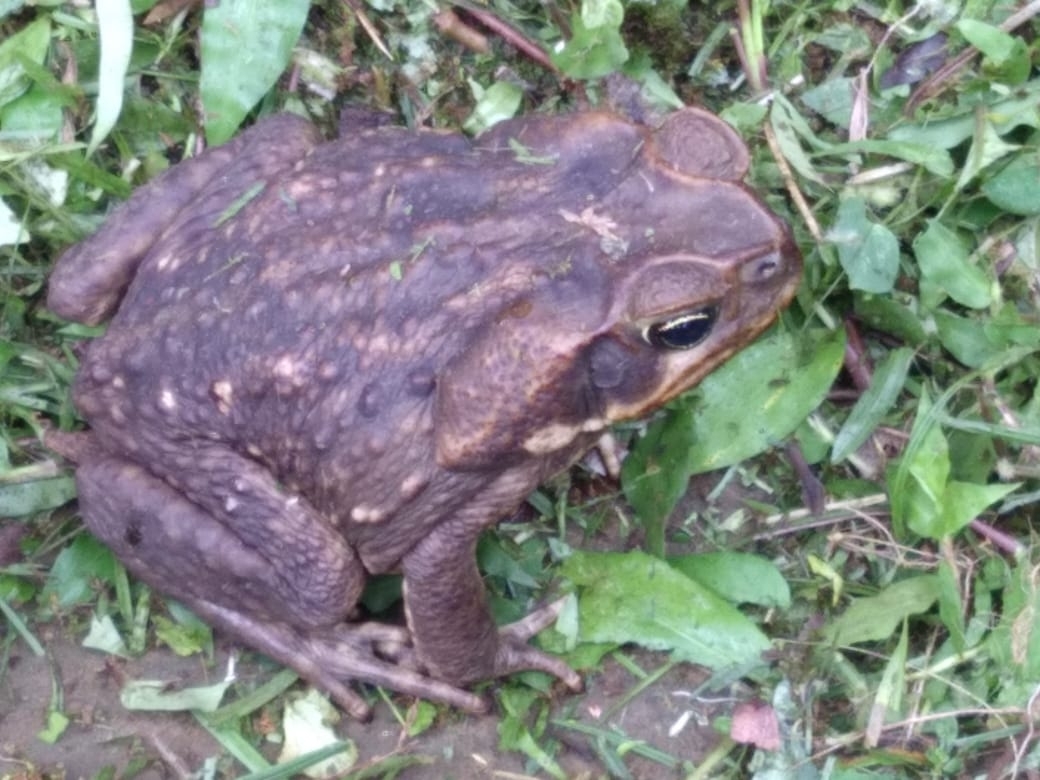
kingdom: Animalia
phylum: Chordata
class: Amphibia
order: Anura
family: Bufonidae
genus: Rhinella
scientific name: Rhinella horribilis
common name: Mesoamerican cane toad
